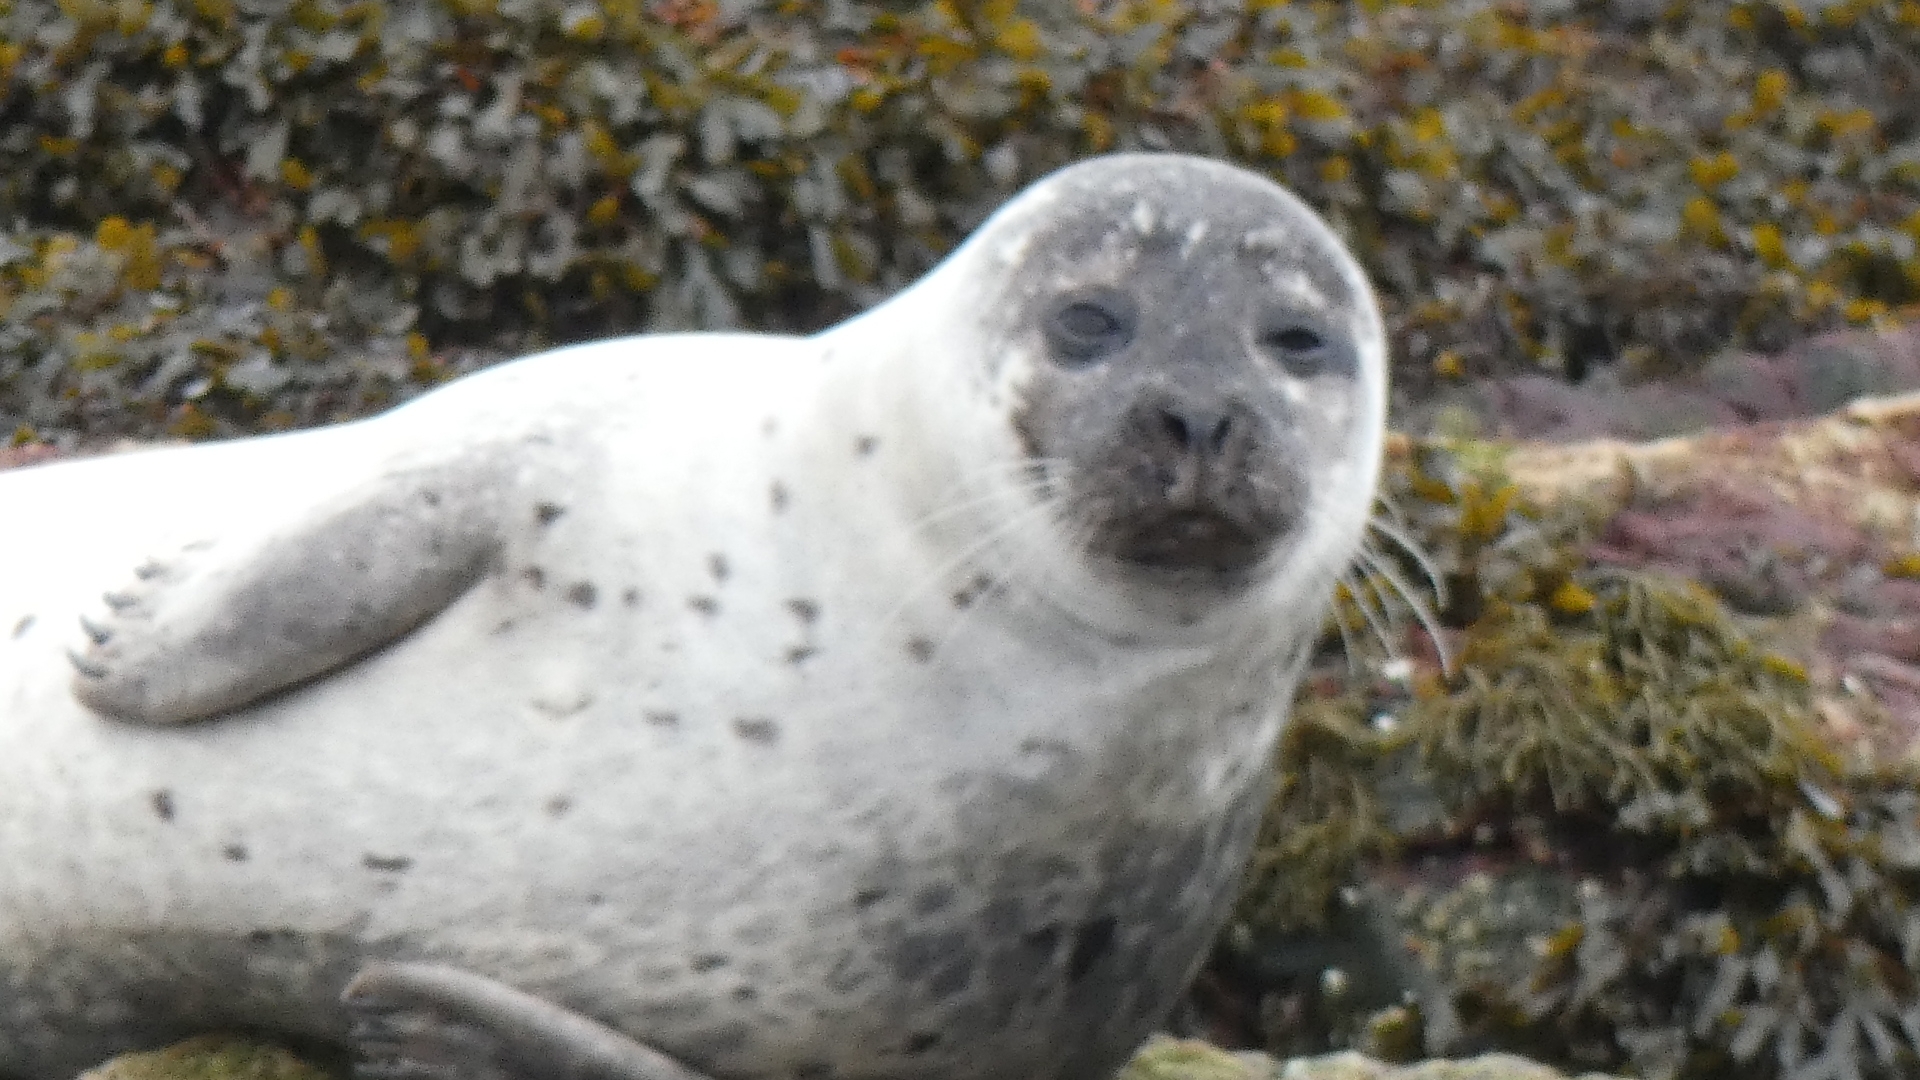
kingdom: Animalia
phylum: Chordata
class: Mammalia
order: Carnivora
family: Phocidae
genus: Phoca
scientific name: Phoca vitulina
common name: Harbor seal
